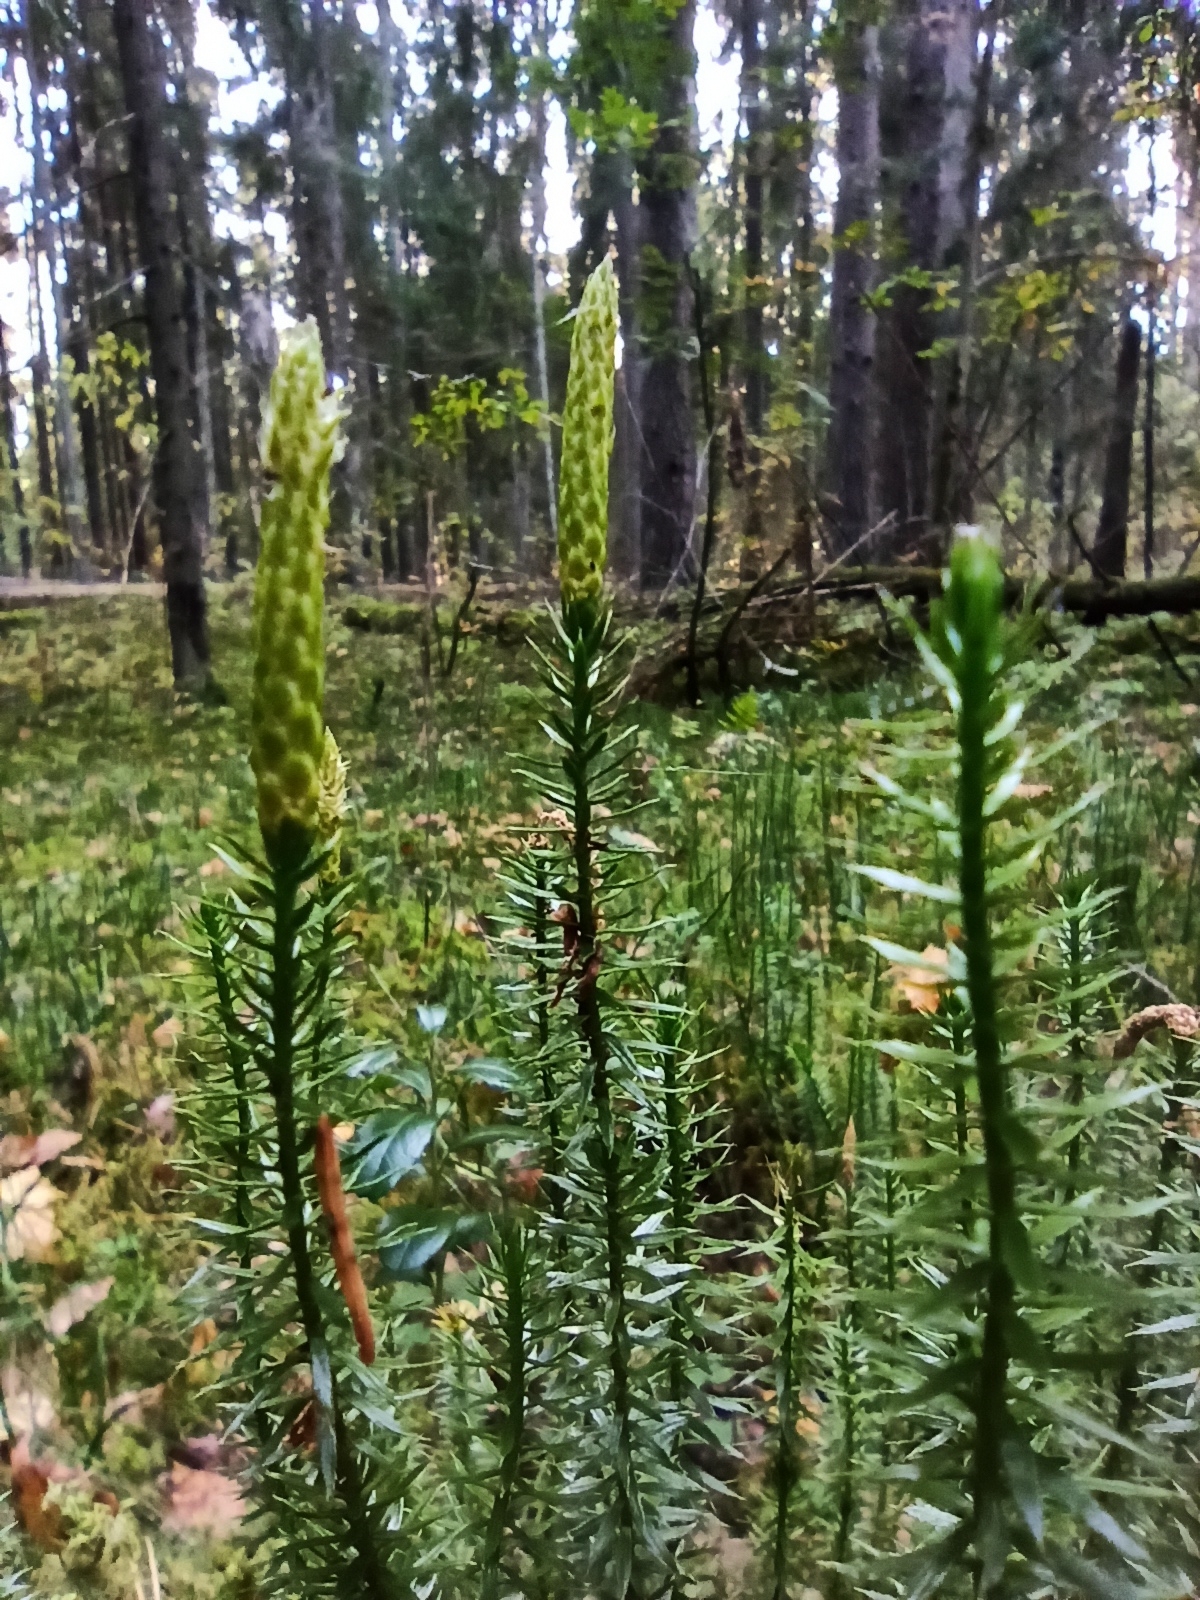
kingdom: Plantae
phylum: Tracheophyta
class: Lycopodiopsida
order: Lycopodiales
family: Lycopodiaceae
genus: Spinulum
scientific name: Spinulum annotinum
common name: Interrupted club-moss
